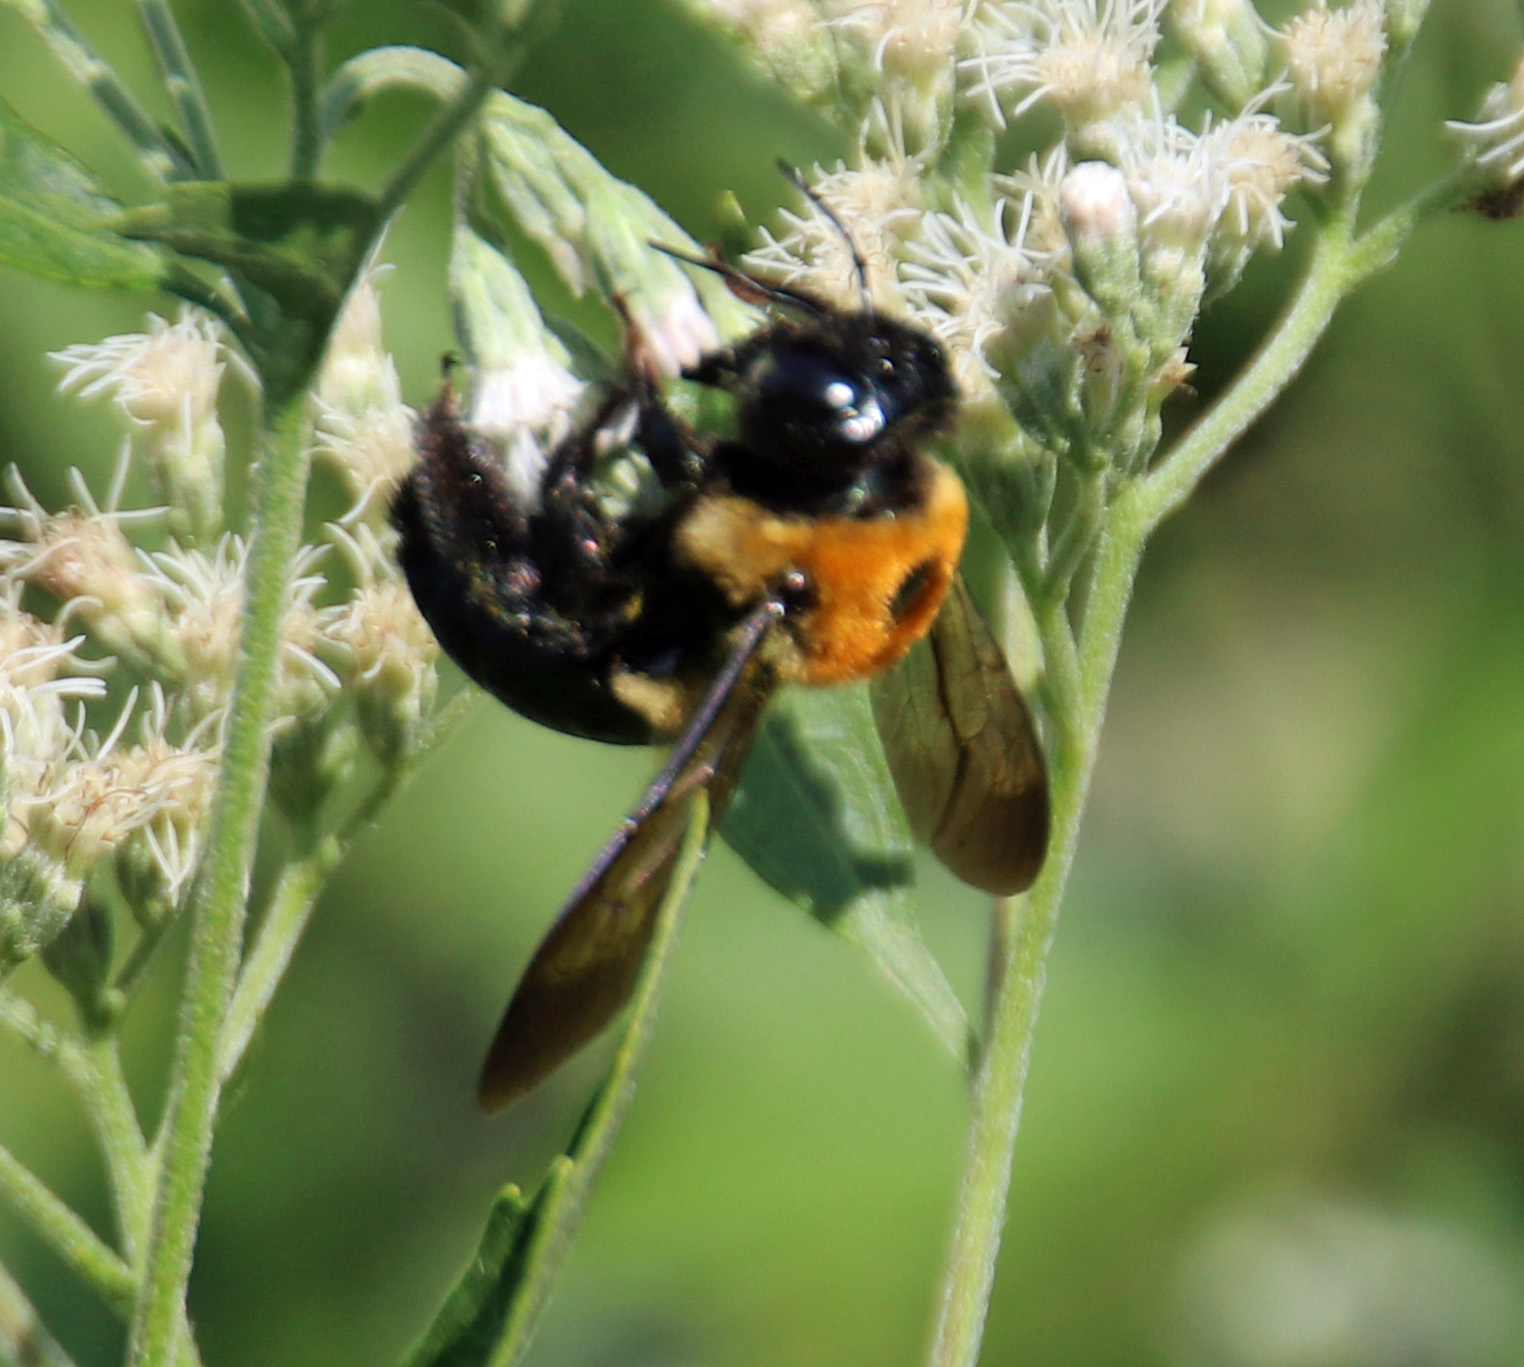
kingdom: Animalia
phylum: Arthropoda
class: Insecta
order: Hymenoptera
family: Apidae
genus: Xylocopa
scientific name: Xylocopa virginica
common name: Carpenter bee
